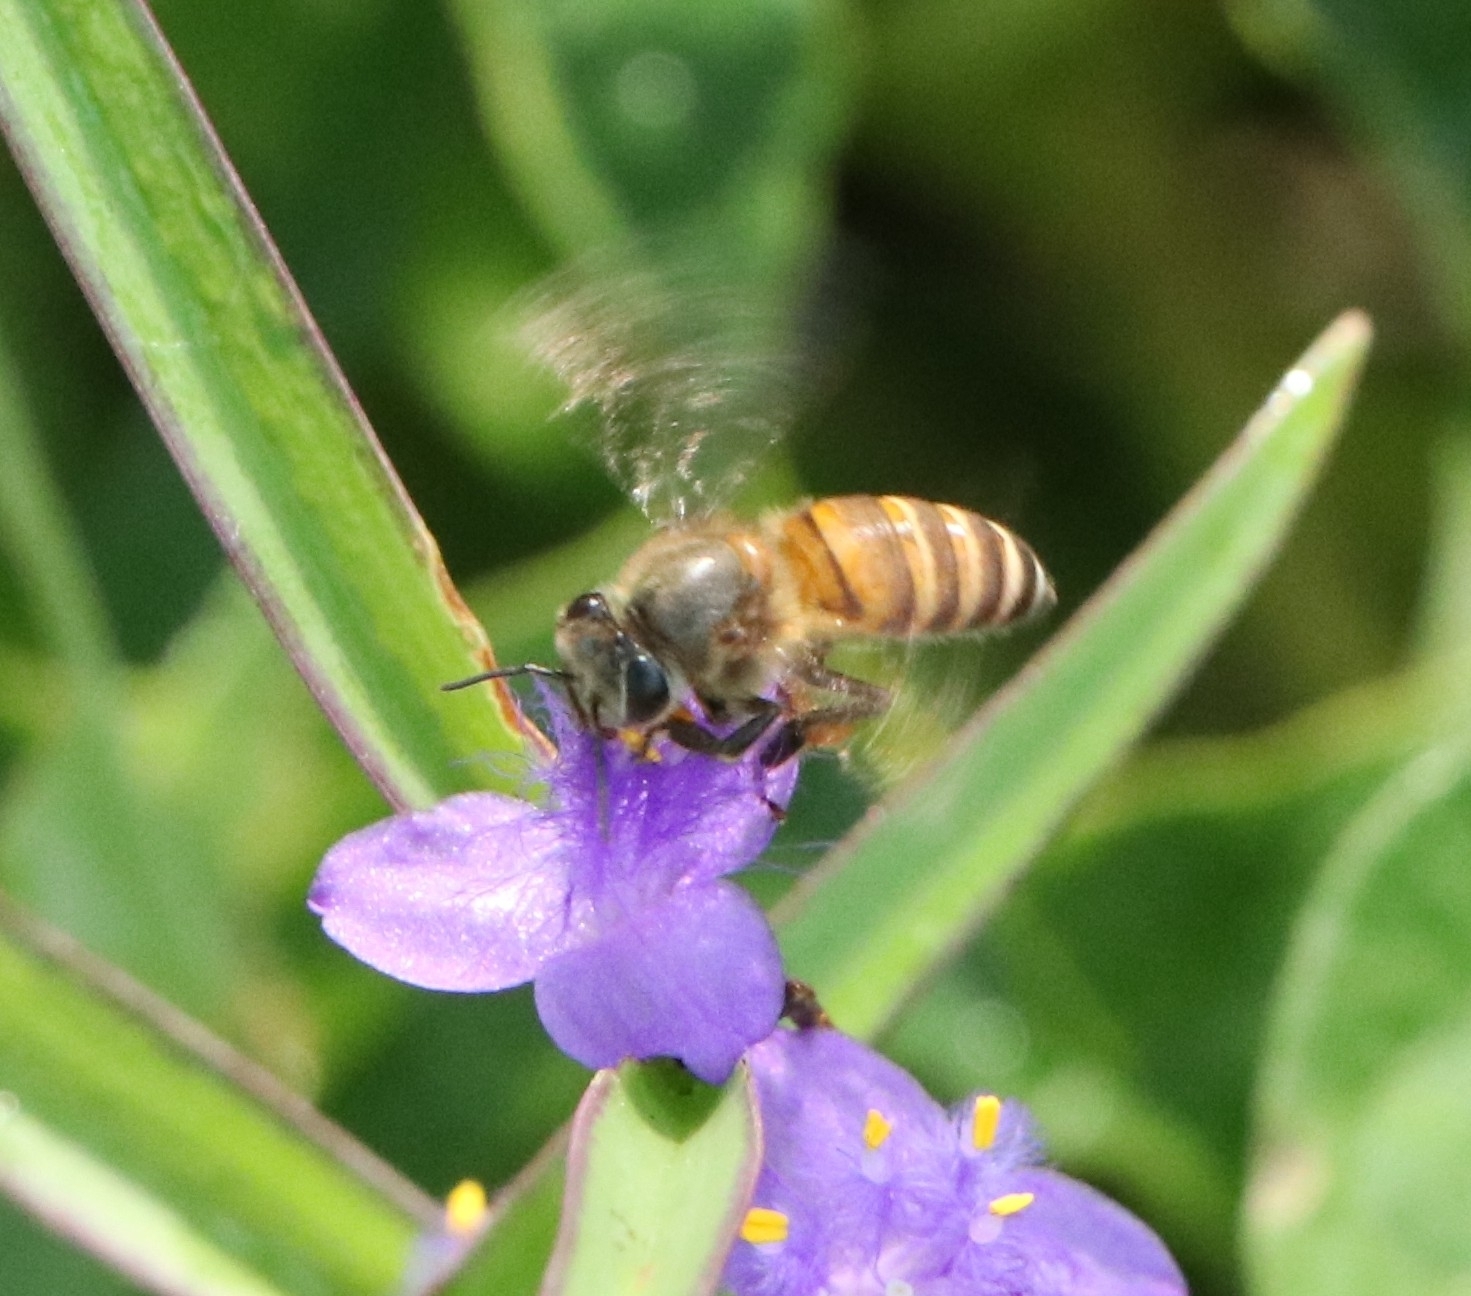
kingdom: Animalia
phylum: Arthropoda
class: Insecta
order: Hymenoptera
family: Apidae
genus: Apis
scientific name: Apis cerana
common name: Honey bee
